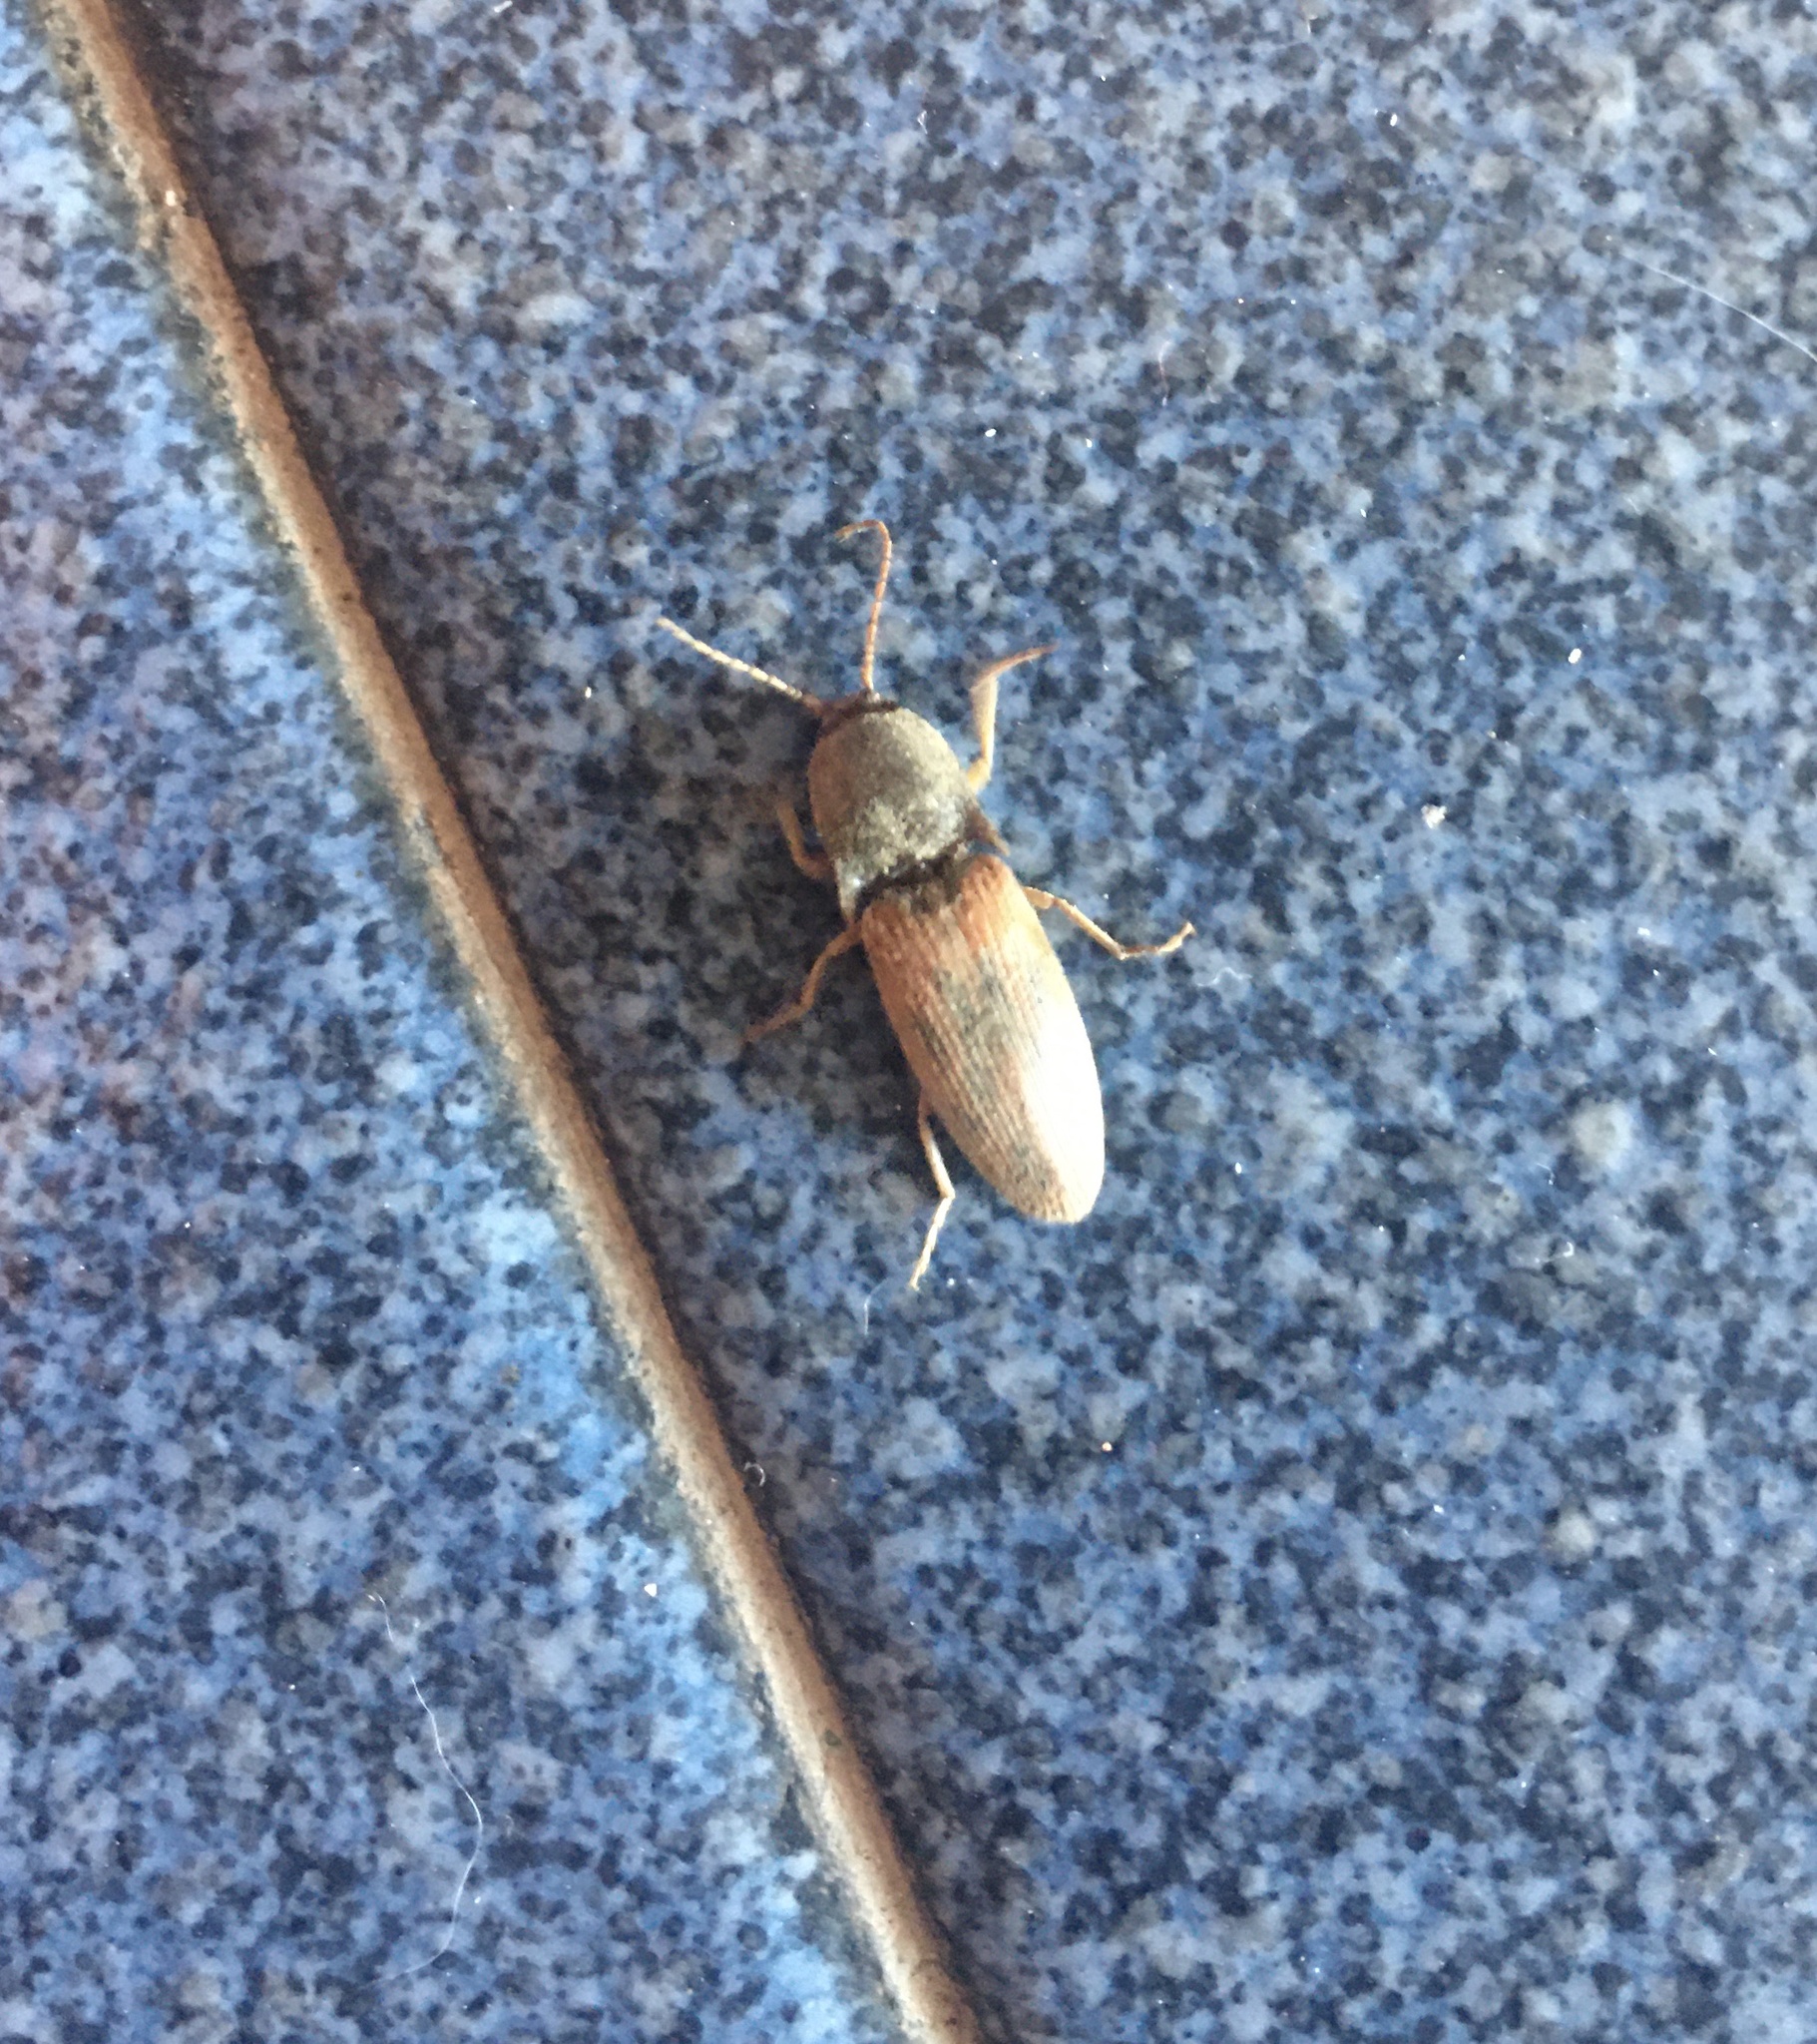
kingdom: Animalia
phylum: Arthropoda
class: Insecta
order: Coleoptera
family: Elateridae
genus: Monocrepidius
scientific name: Monocrepidius
